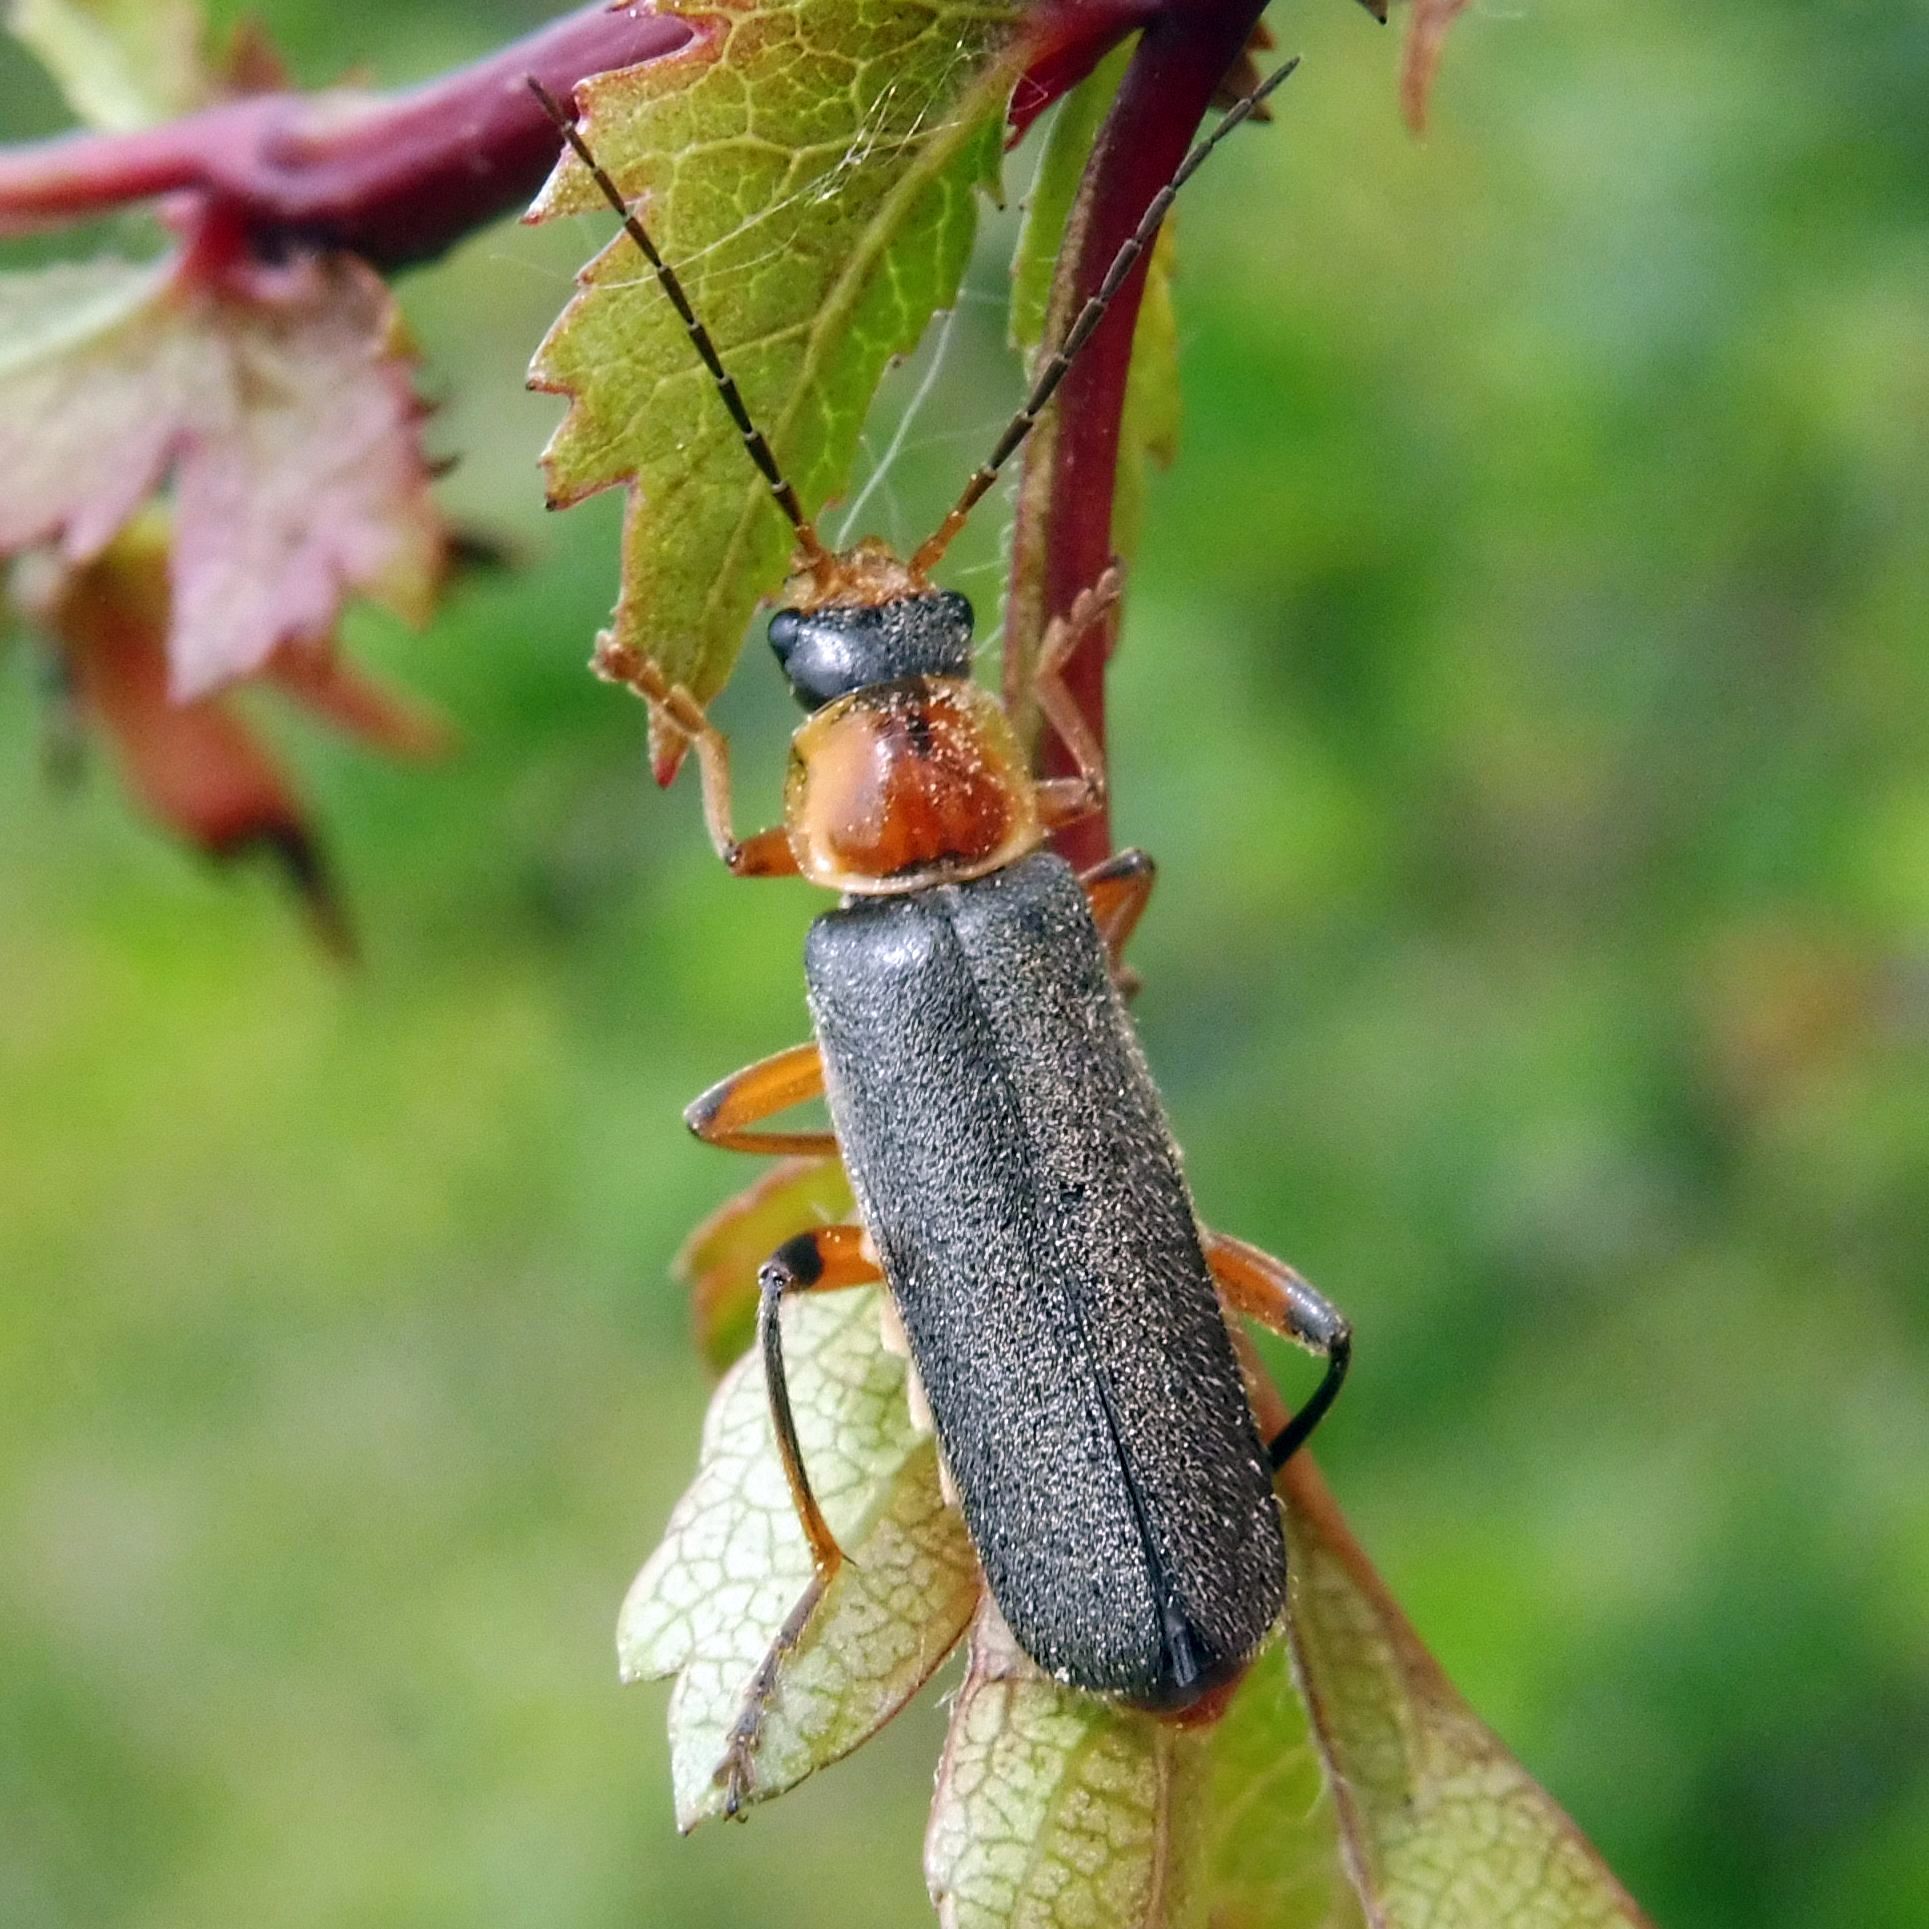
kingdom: Animalia
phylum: Arthropoda
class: Insecta
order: Coleoptera
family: Cantharidae
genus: Cantharis
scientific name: Cantharis nigricans
